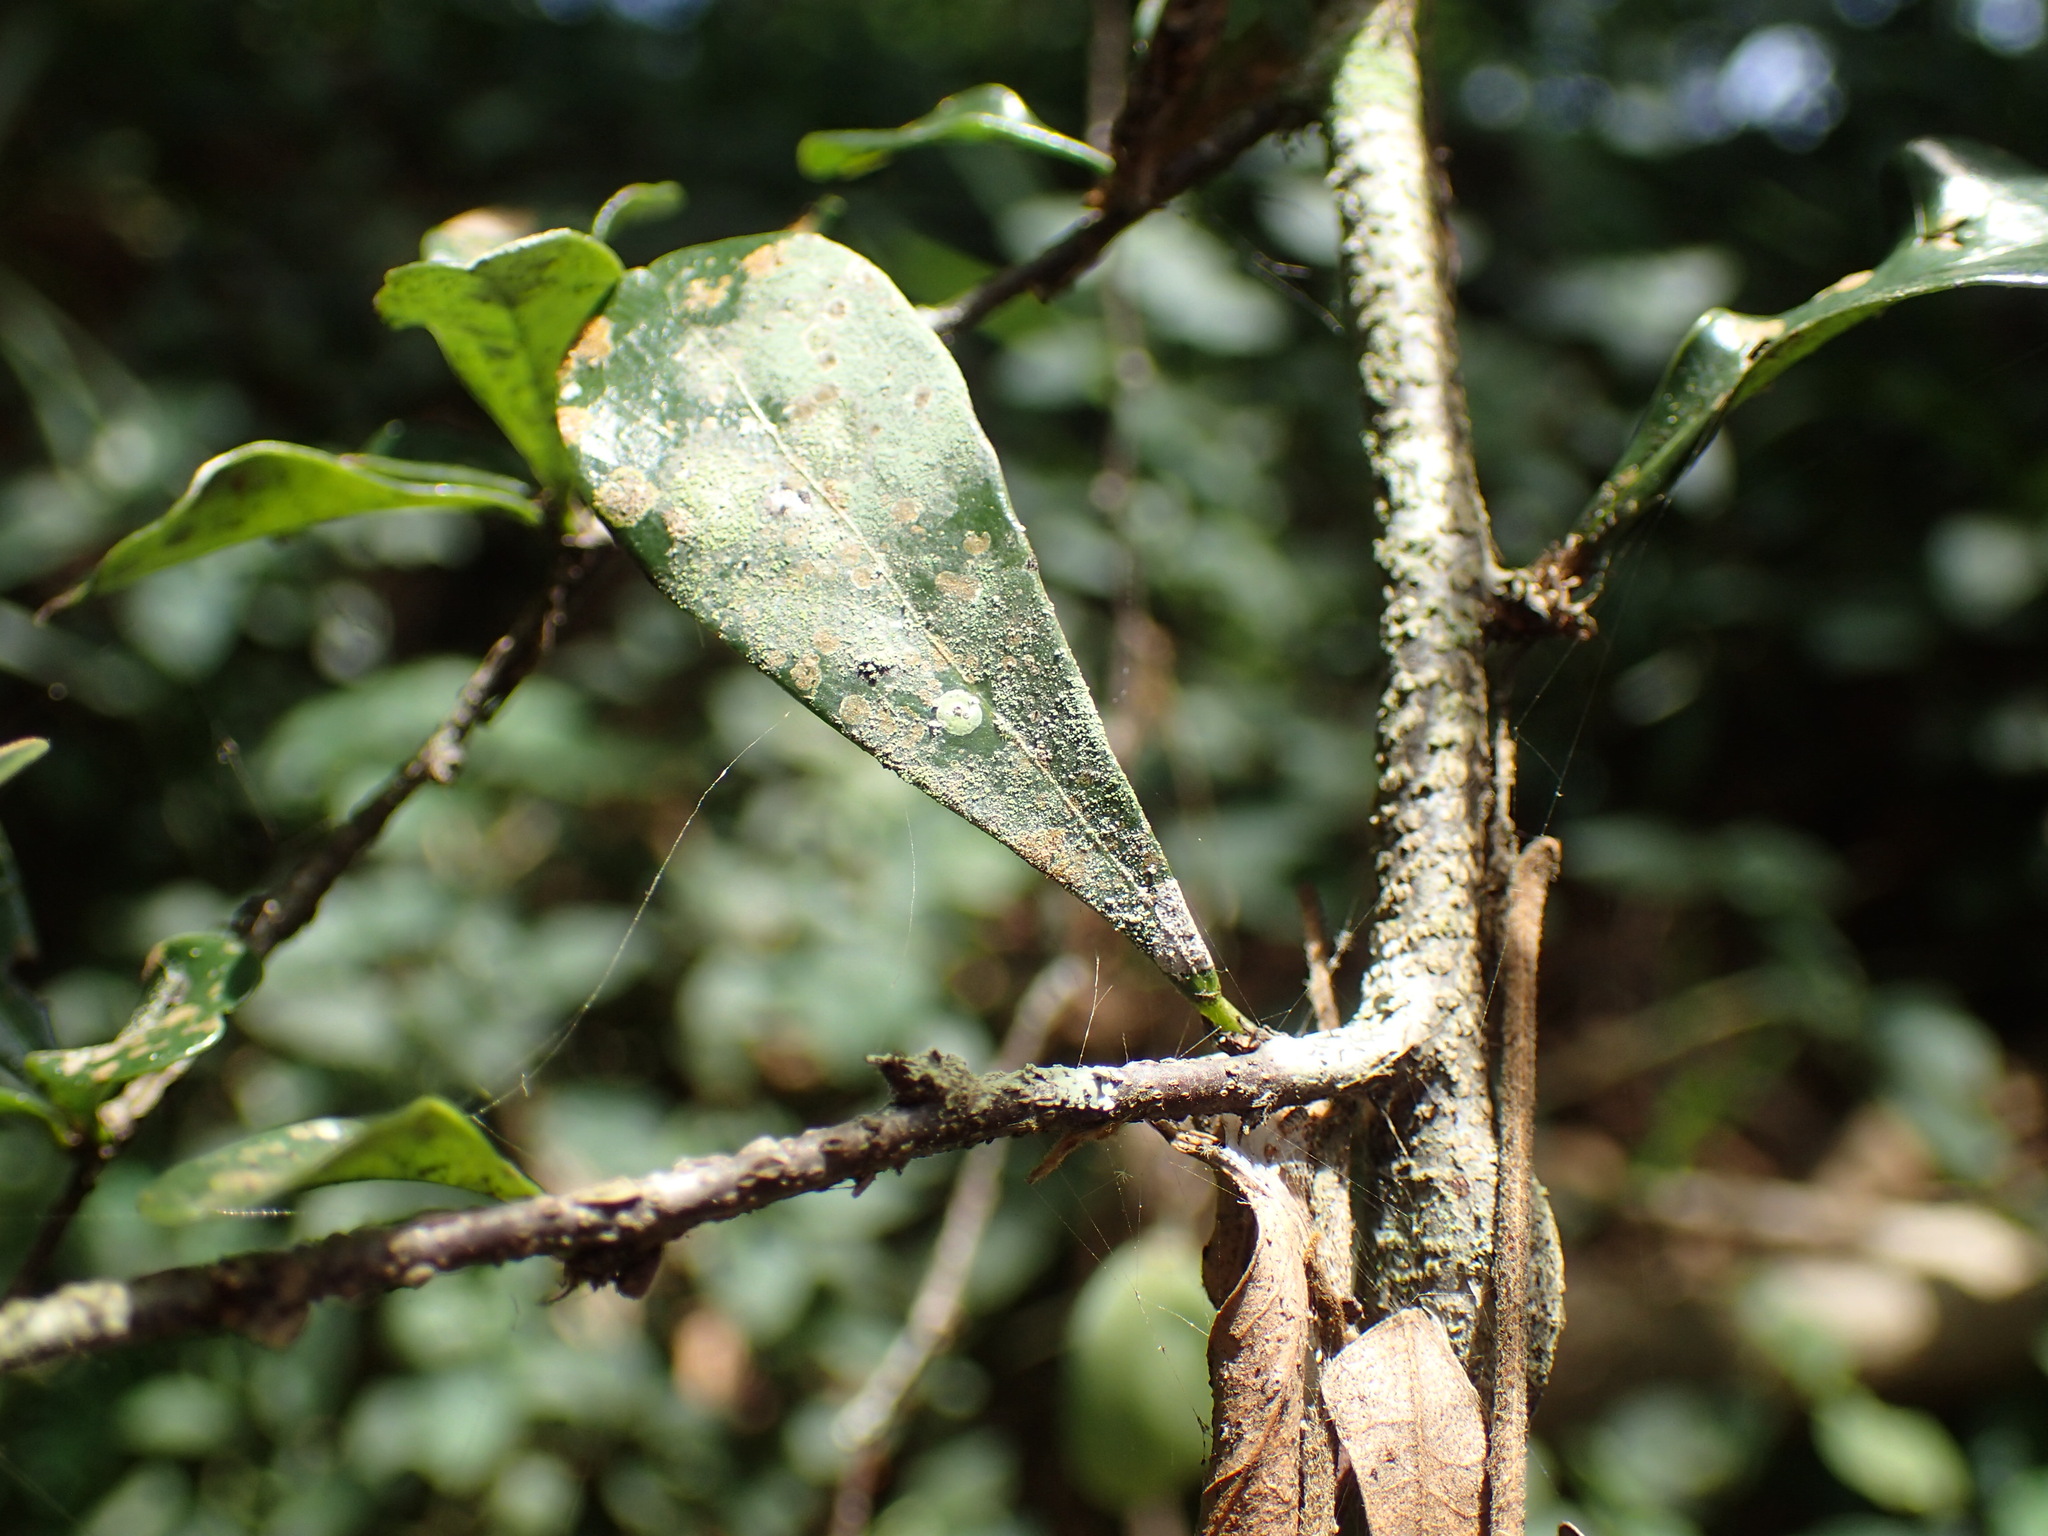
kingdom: Plantae
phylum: Tracheophyta
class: Magnoliopsida
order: Celastrales
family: Celastraceae
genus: Putterlickia
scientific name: Putterlickia verrucosa
